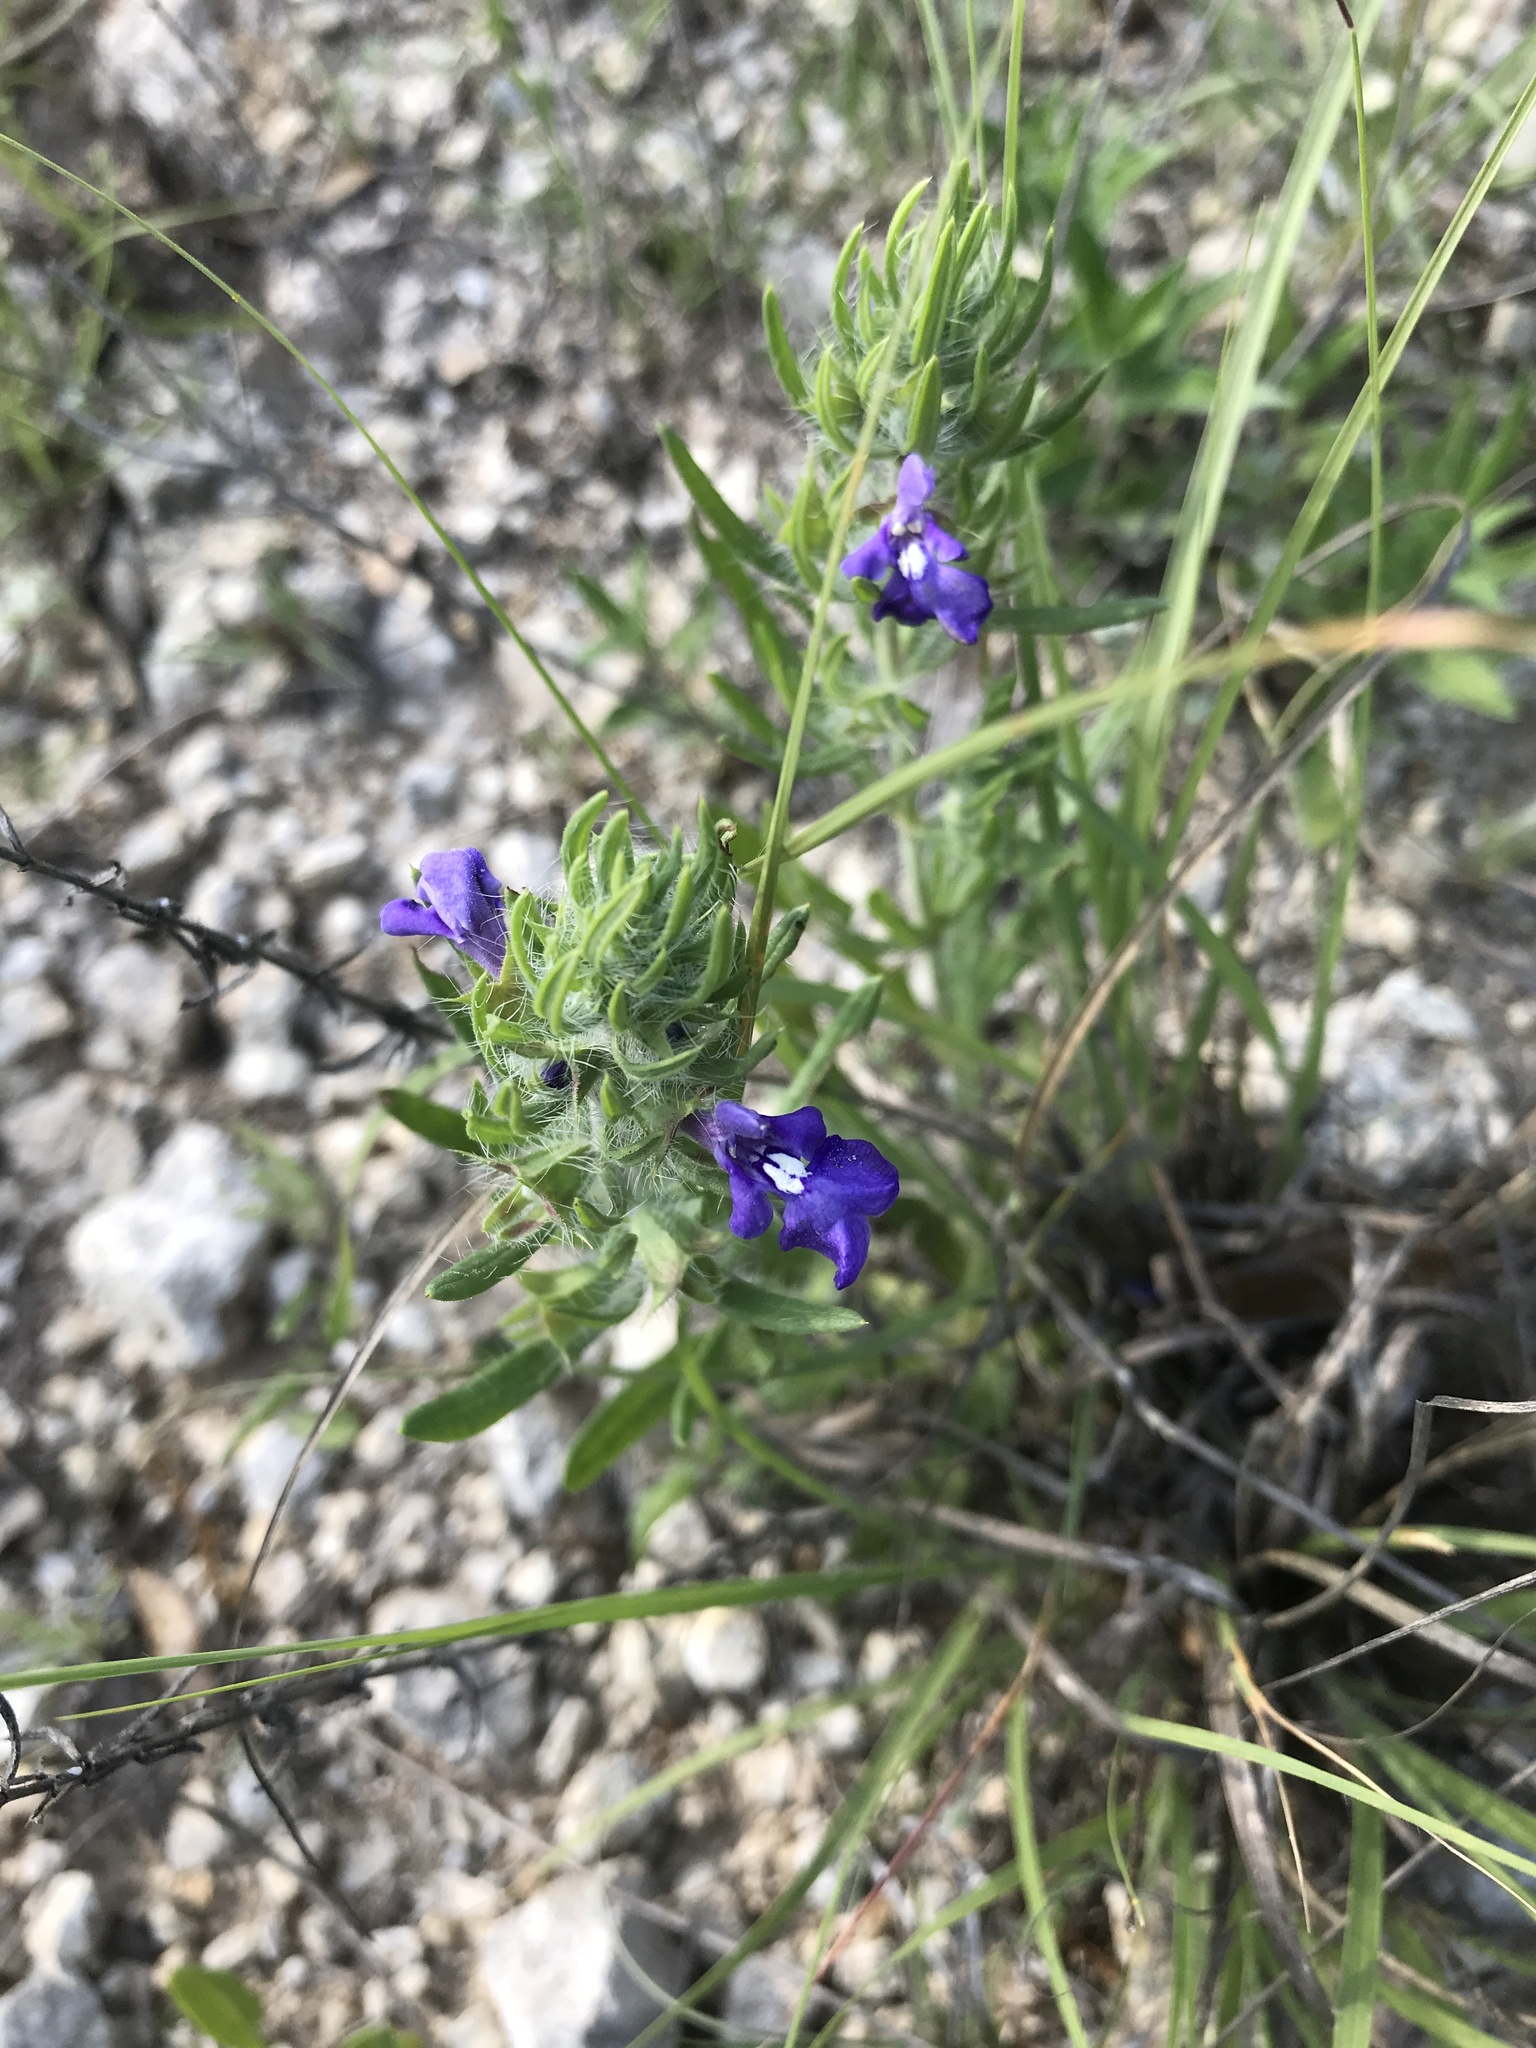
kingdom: Plantae
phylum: Tracheophyta
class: Magnoliopsida
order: Lamiales
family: Lamiaceae
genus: Salvia
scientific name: Salvia texana
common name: Texas sage
